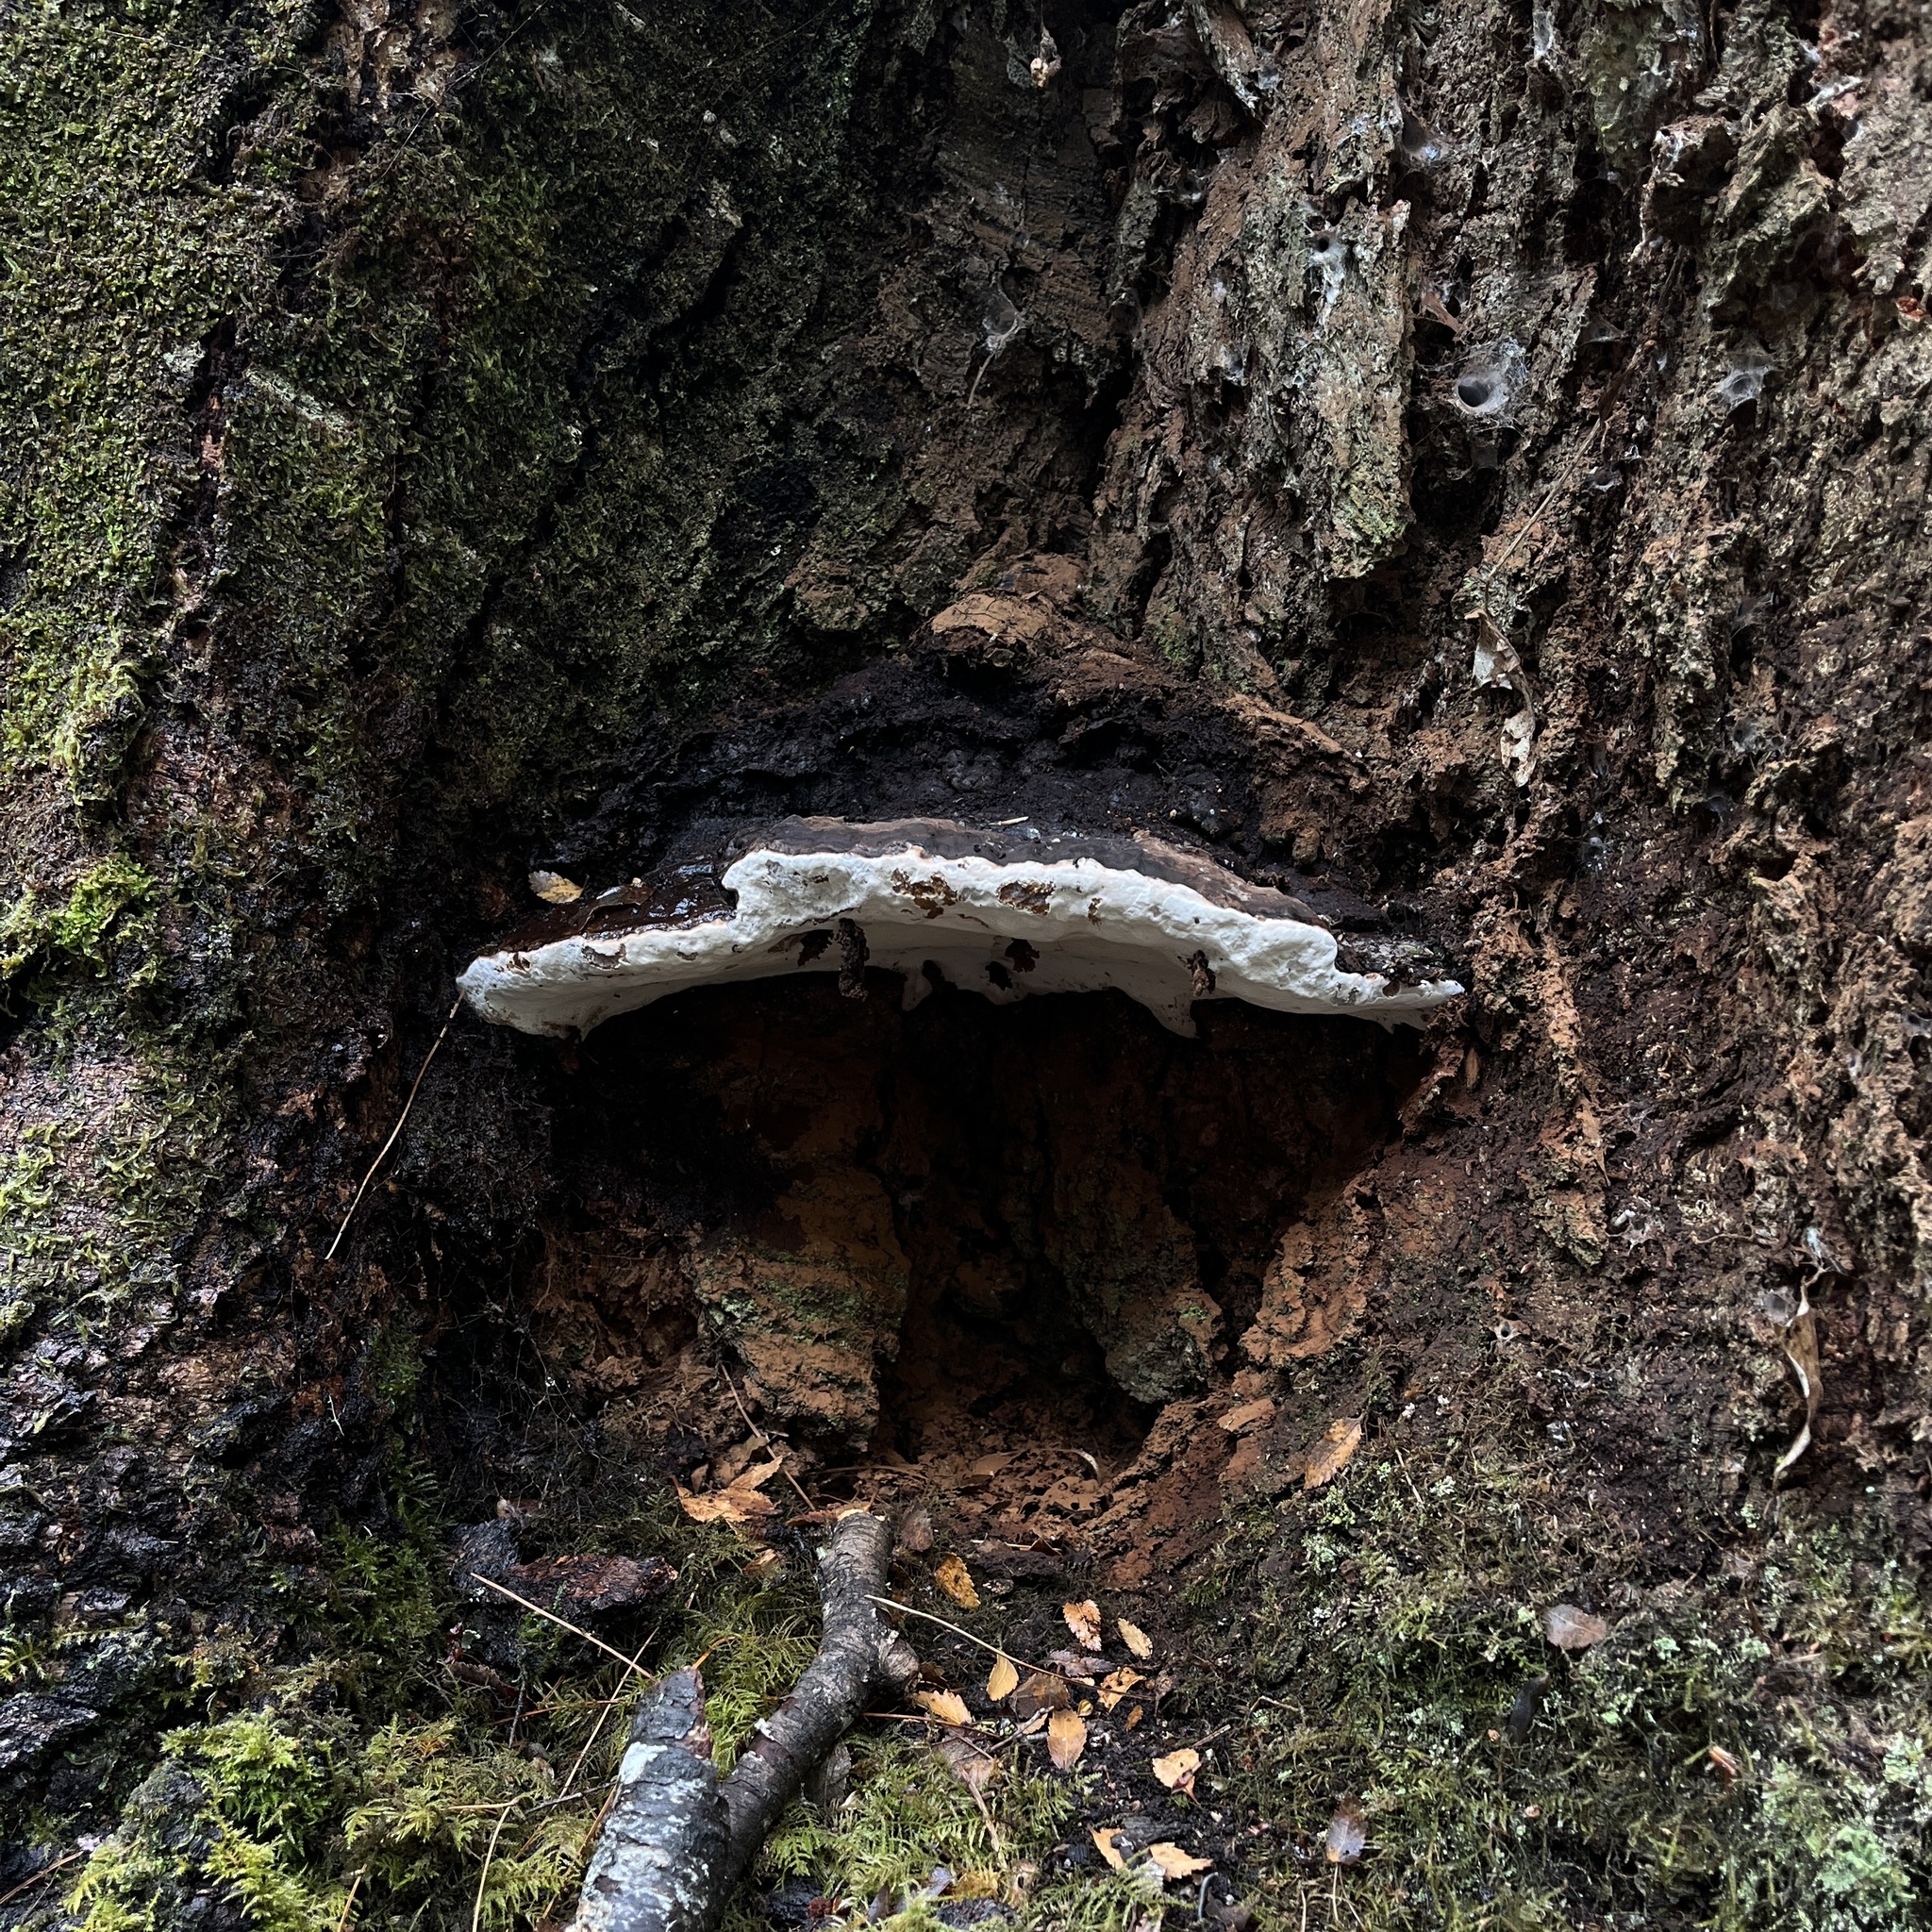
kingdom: Fungi
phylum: Basidiomycota
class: Agaricomycetes
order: Polyporales
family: Polyporaceae
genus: Ganoderma
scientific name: Ganoderma australe
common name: Southern bracket
